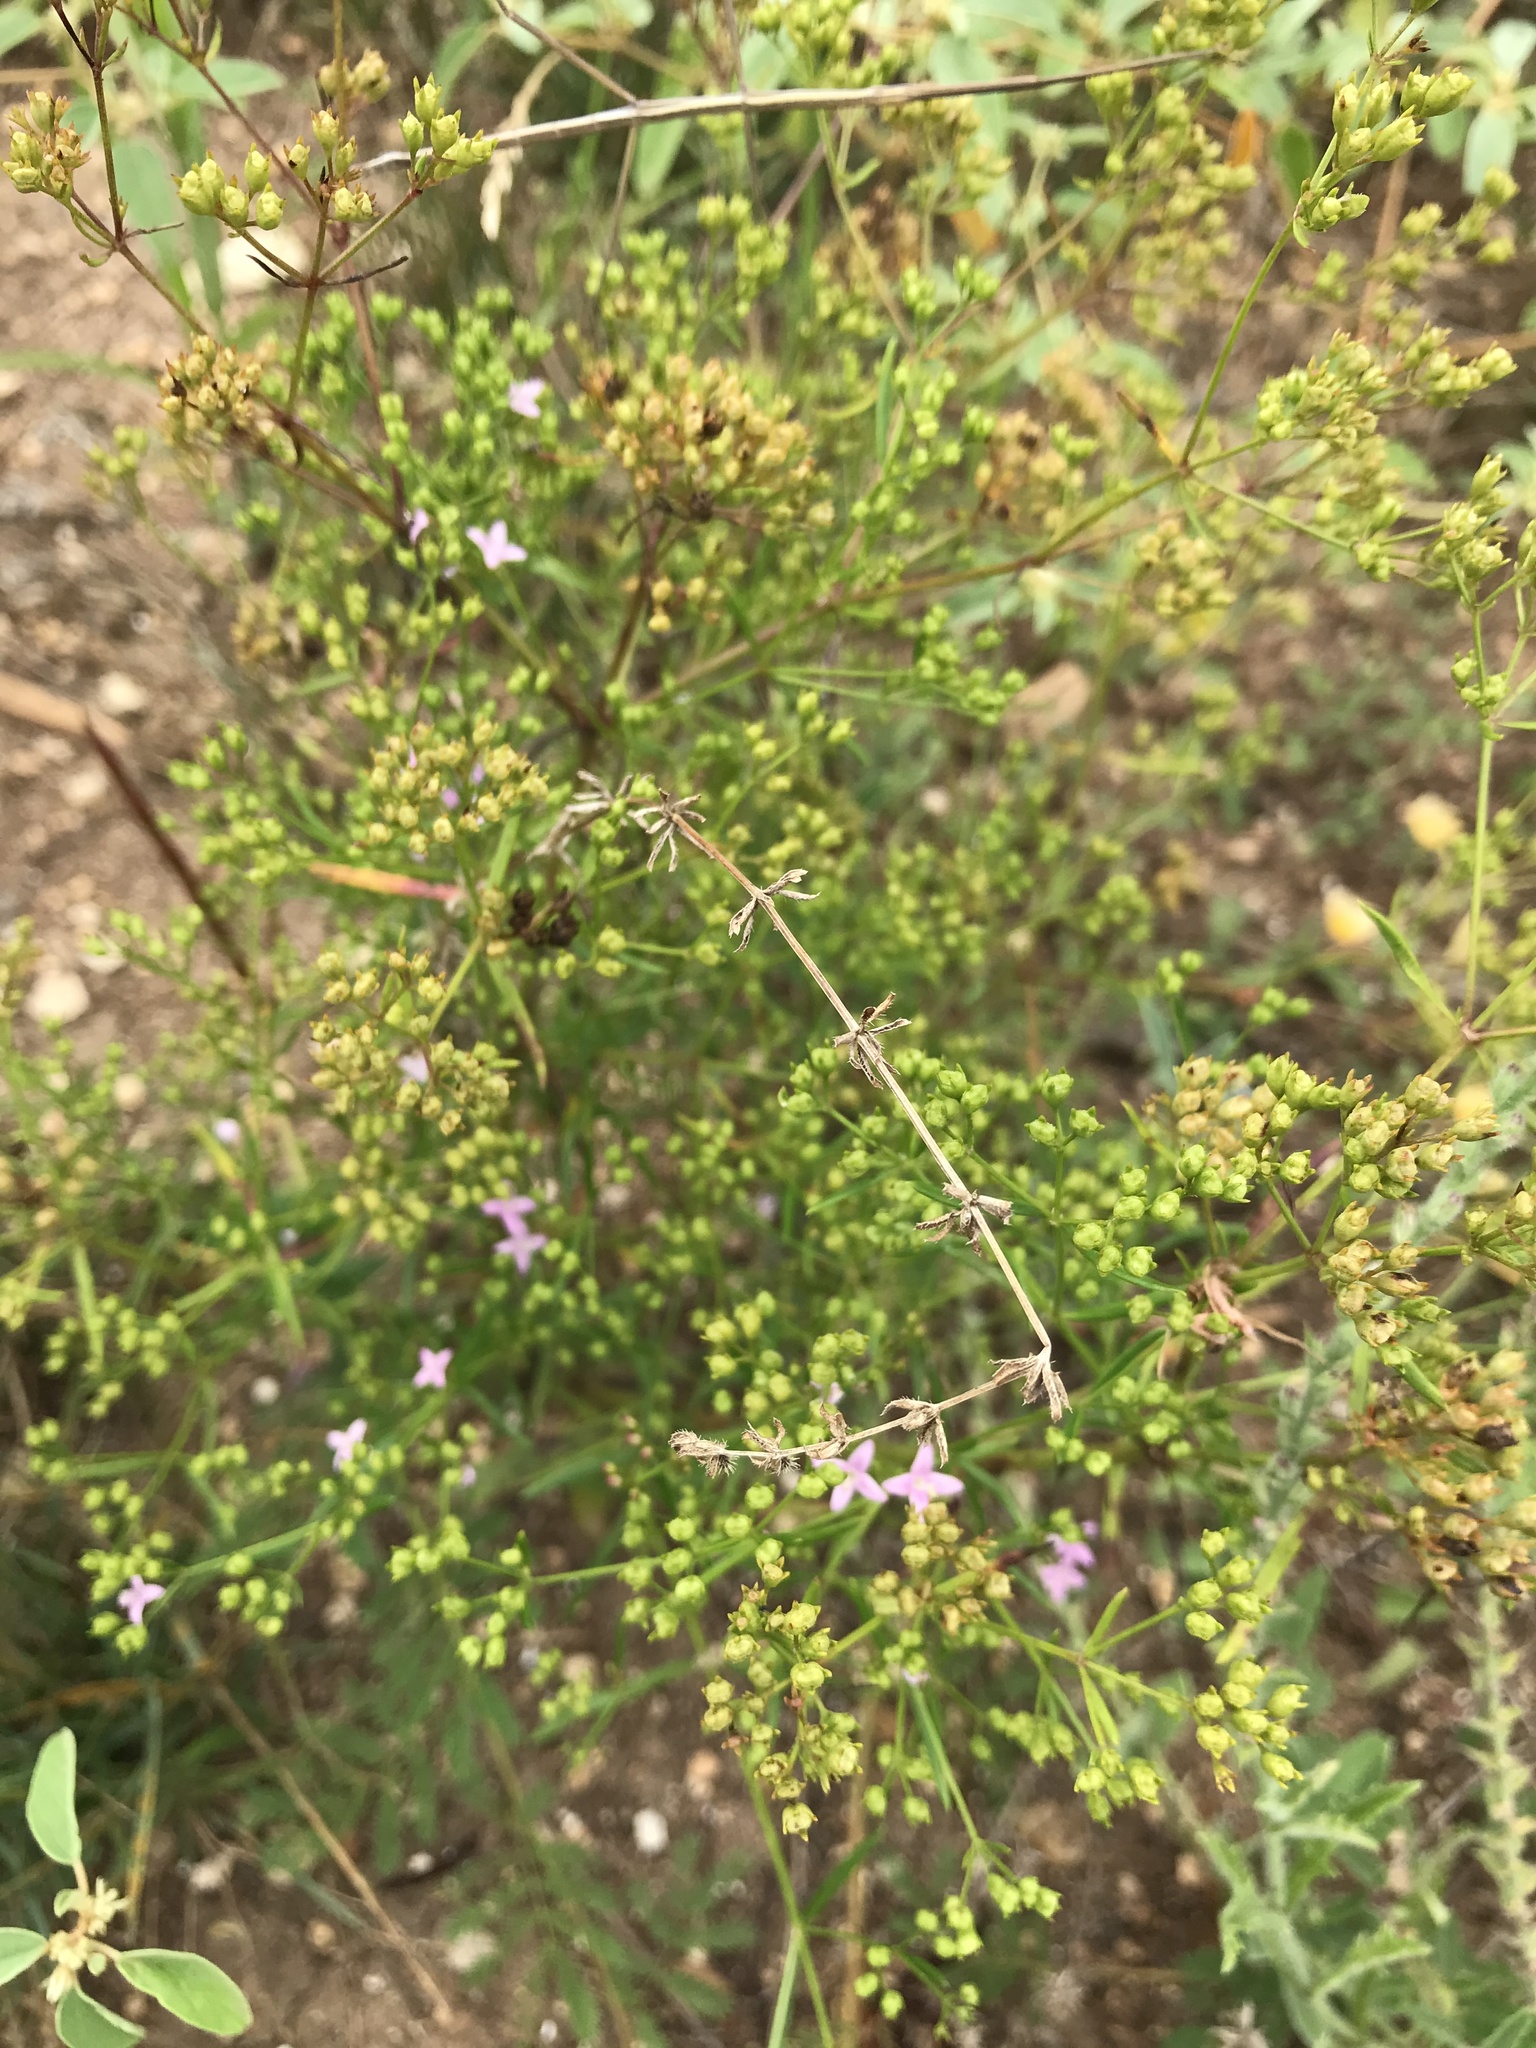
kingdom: Plantae
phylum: Tracheophyta
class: Magnoliopsida
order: Gentianales
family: Rubiaceae
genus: Stenaria
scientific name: Stenaria nigricans
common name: Diamondflowers
